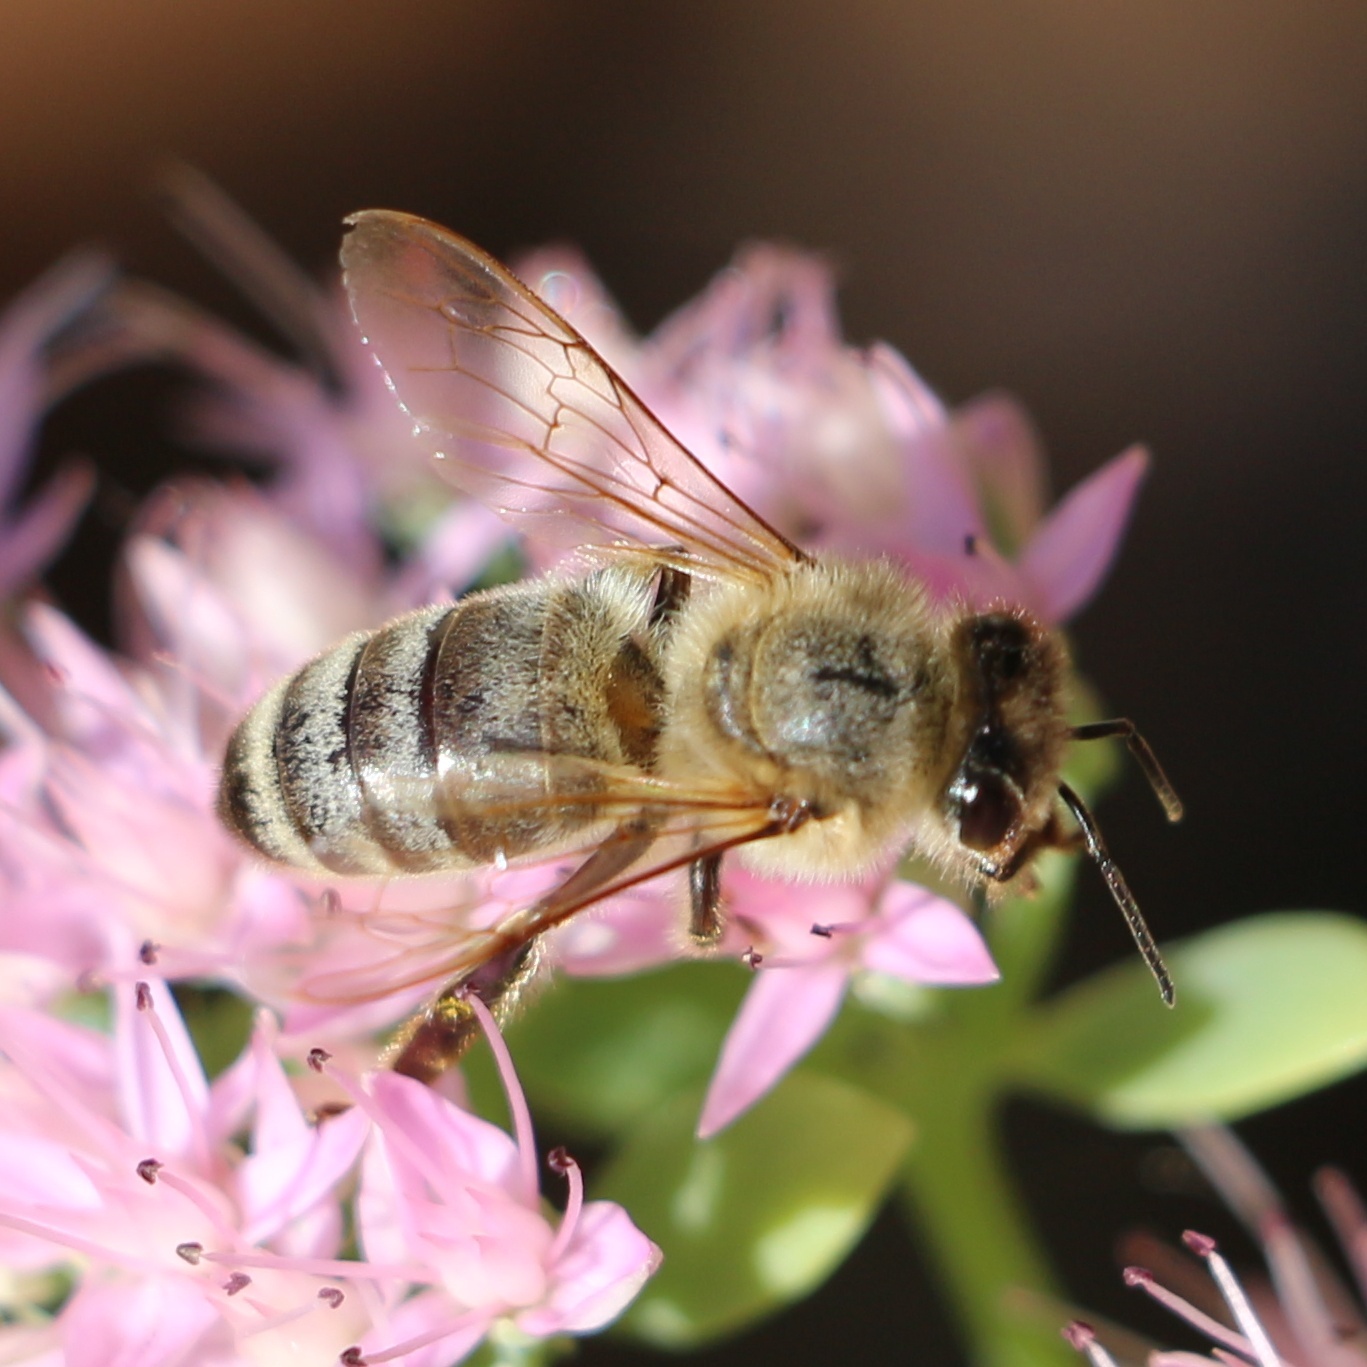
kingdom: Animalia
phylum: Arthropoda
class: Insecta
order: Hymenoptera
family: Apidae
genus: Apis
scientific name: Apis mellifera
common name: Honey bee
